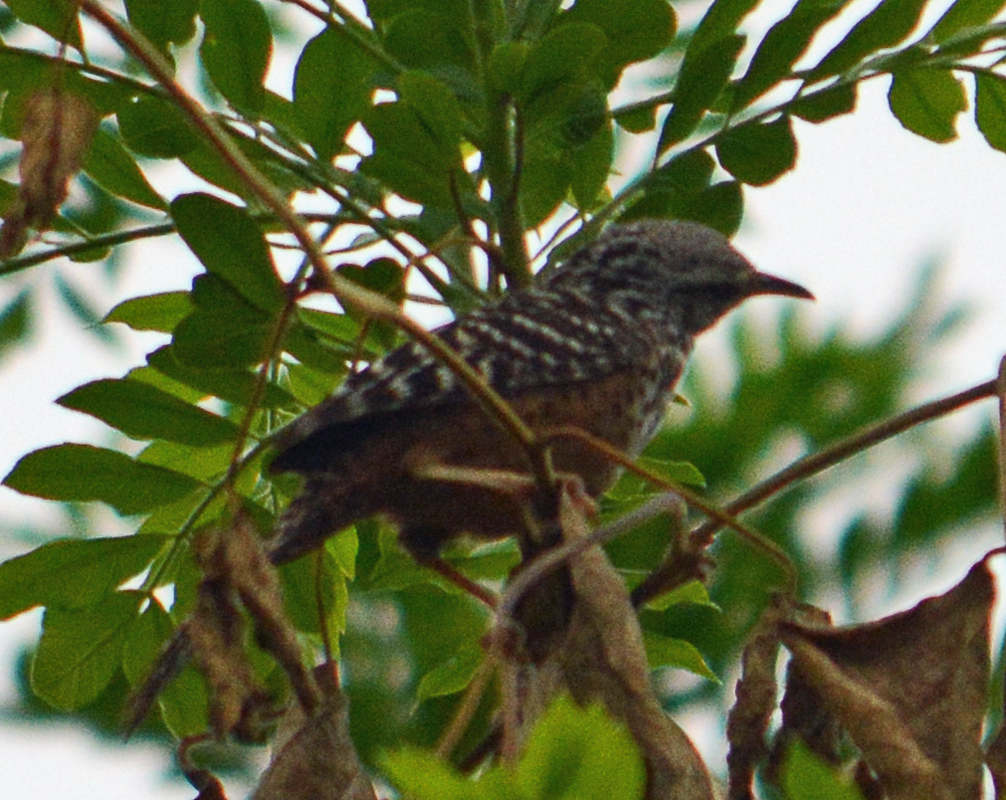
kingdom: Animalia
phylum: Chordata
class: Aves
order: Passeriformes
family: Troglodytidae
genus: Campylorhynchus
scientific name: Campylorhynchus zonatus
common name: Band-backed wren
